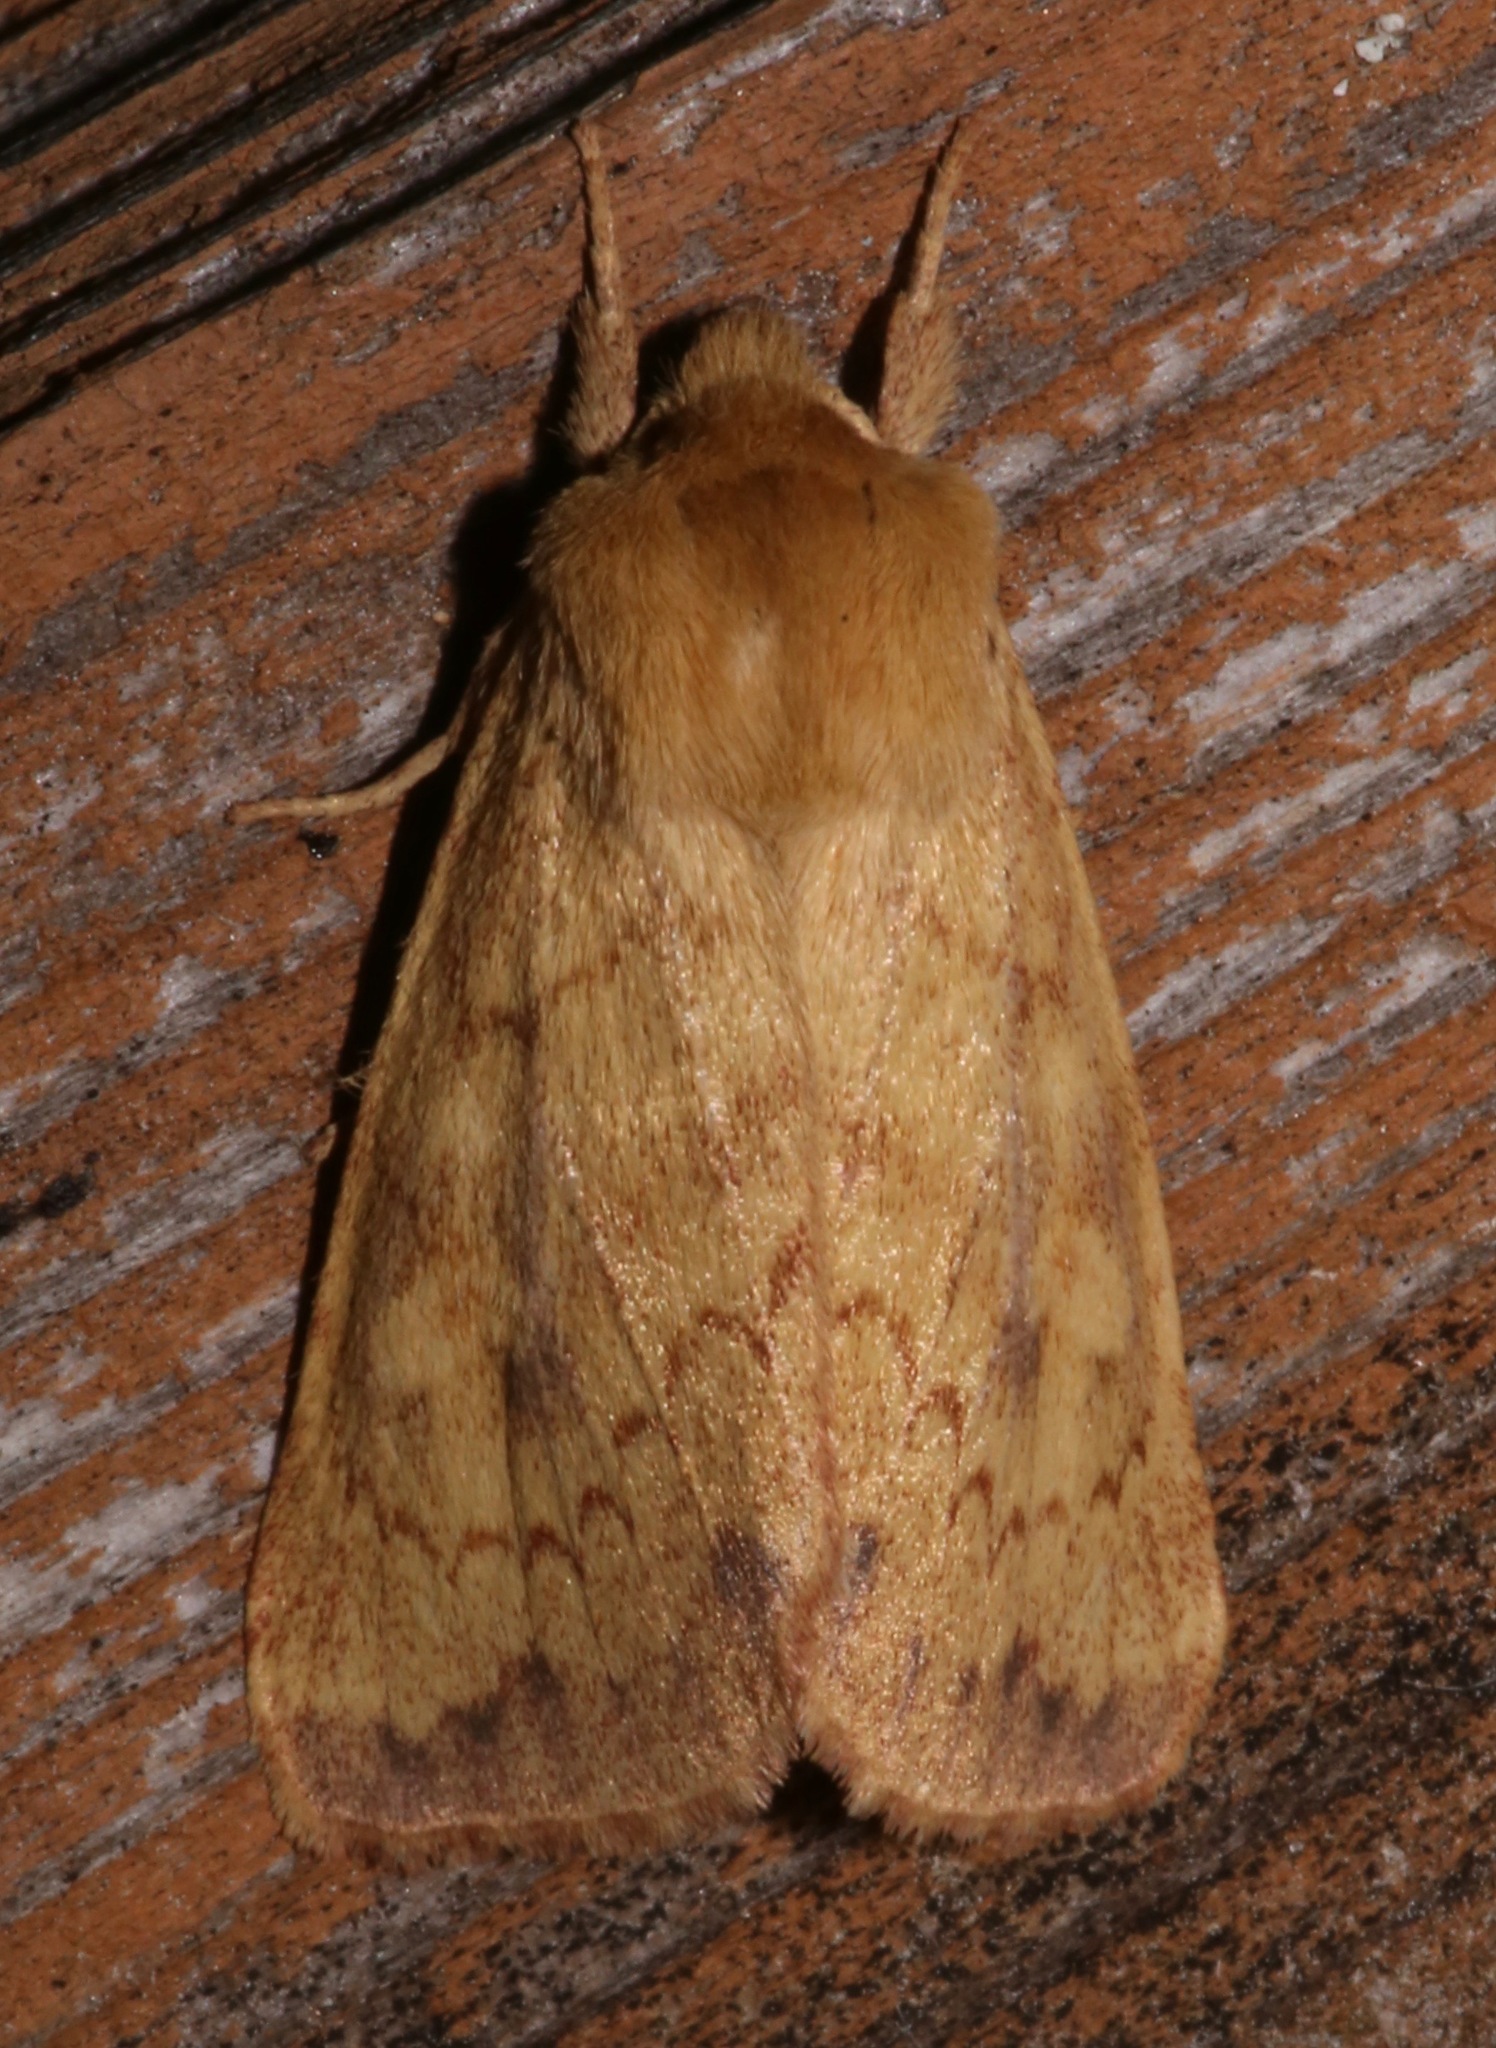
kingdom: Animalia
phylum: Arthropoda
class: Insecta
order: Lepidoptera
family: Noctuidae
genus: Bellura
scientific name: Bellura gortynoides
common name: White-tailed diver moth
